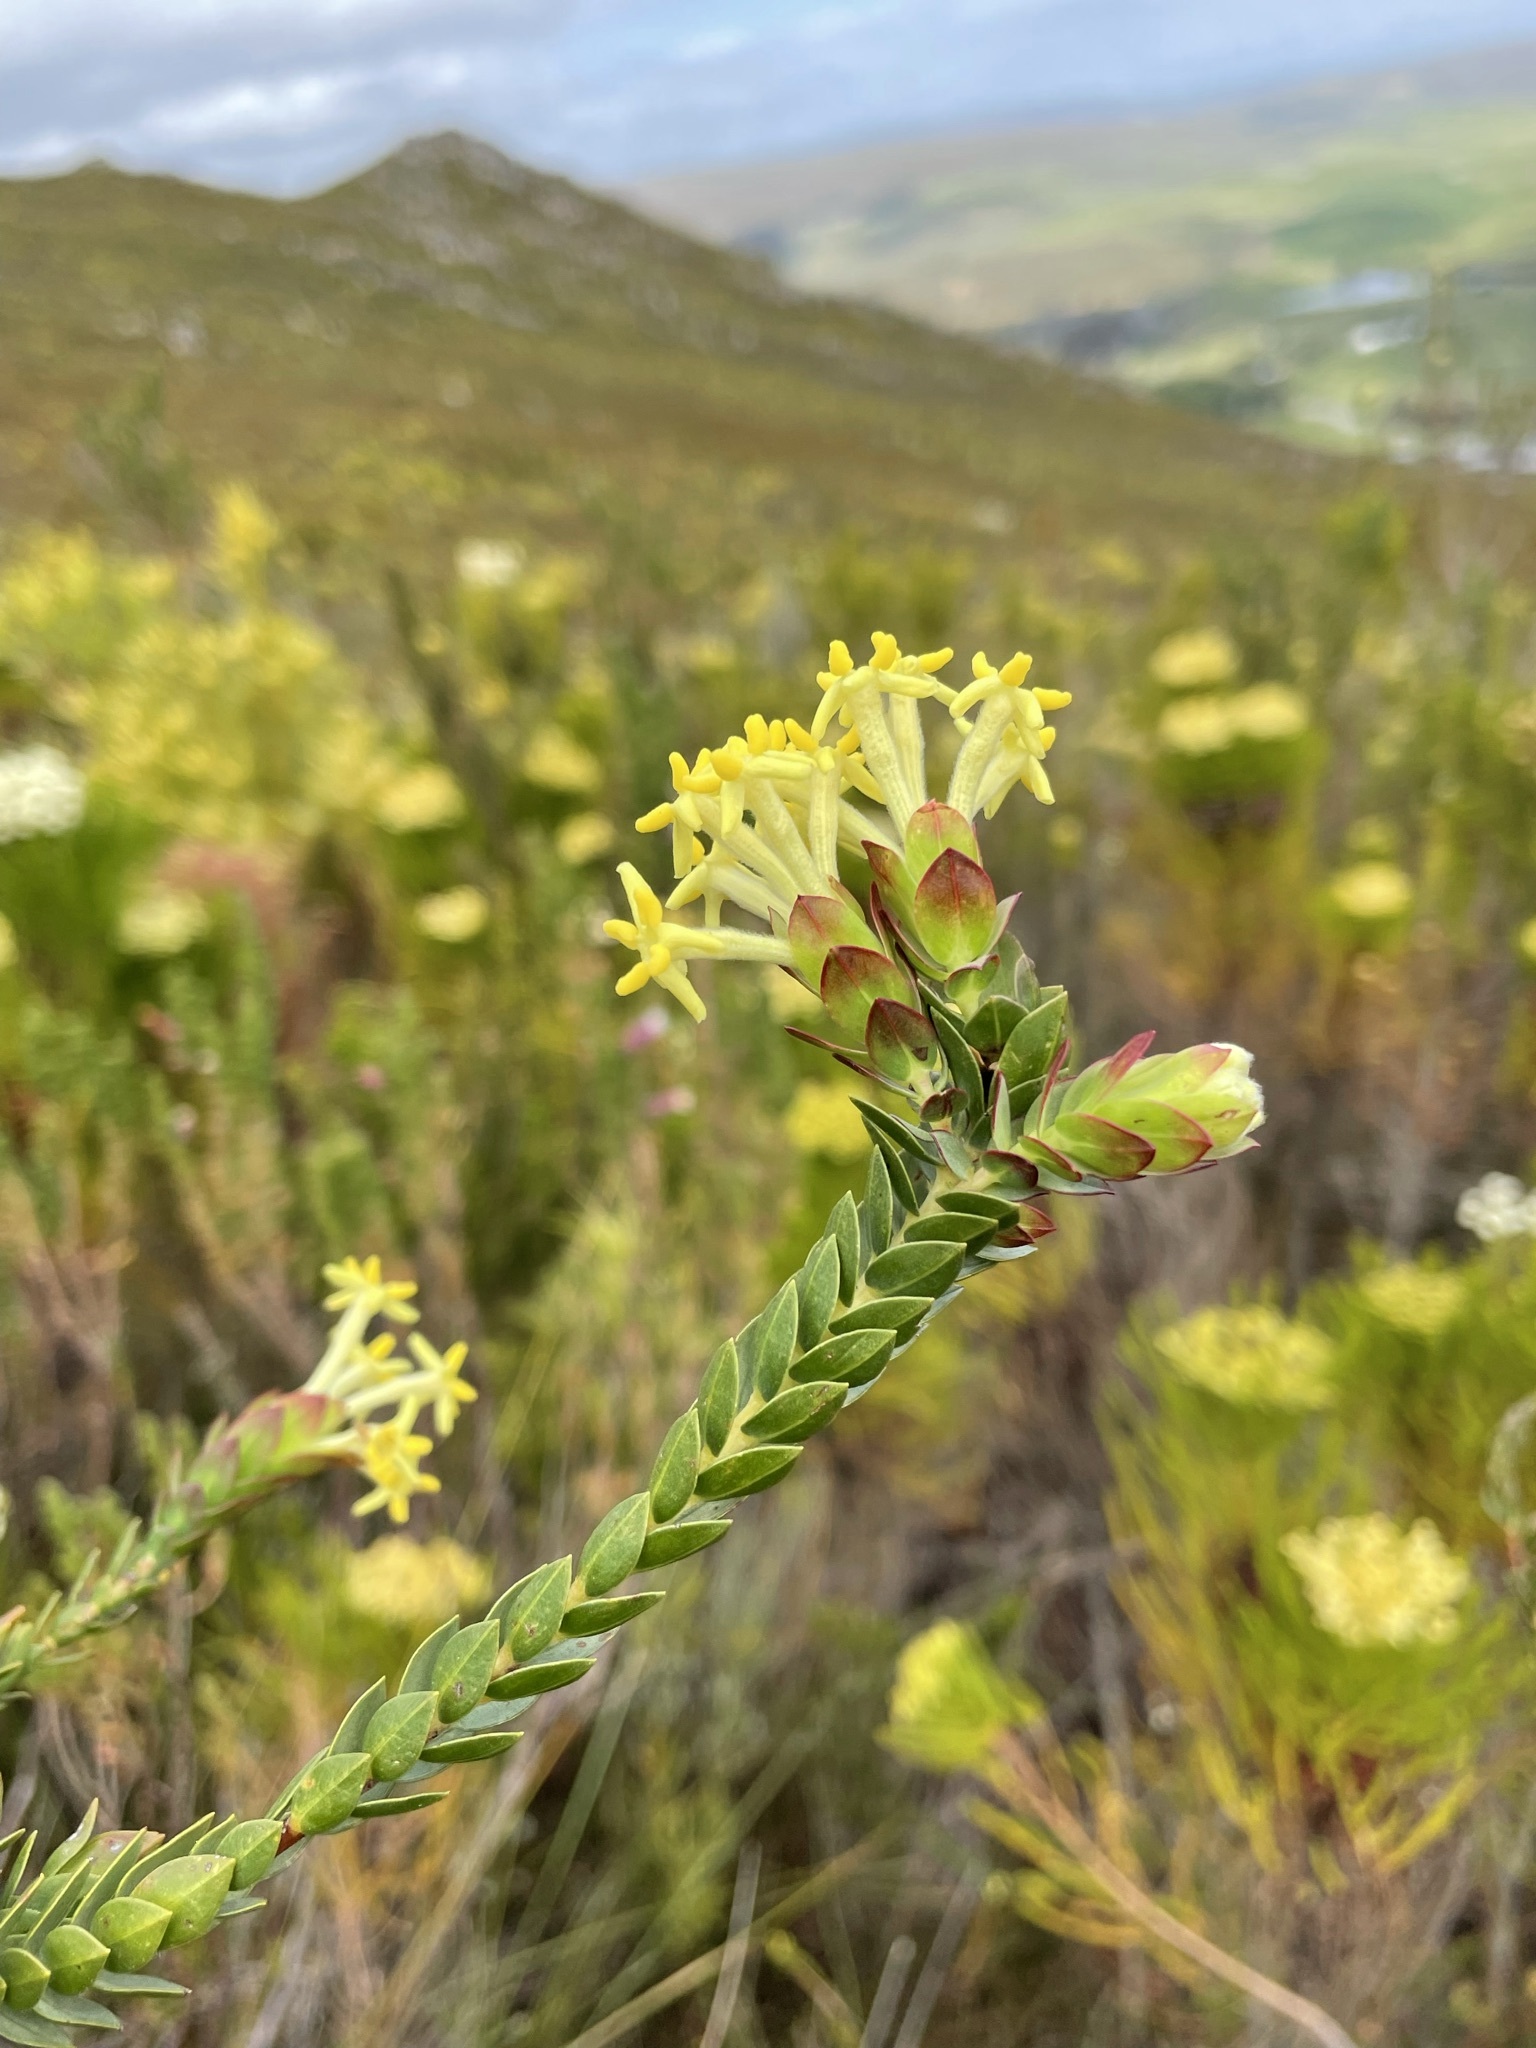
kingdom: Plantae
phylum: Tracheophyta
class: Magnoliopsida
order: Malvales
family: Thymelaeaceae
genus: Gnidia
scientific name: Gnidia oppositifolia
